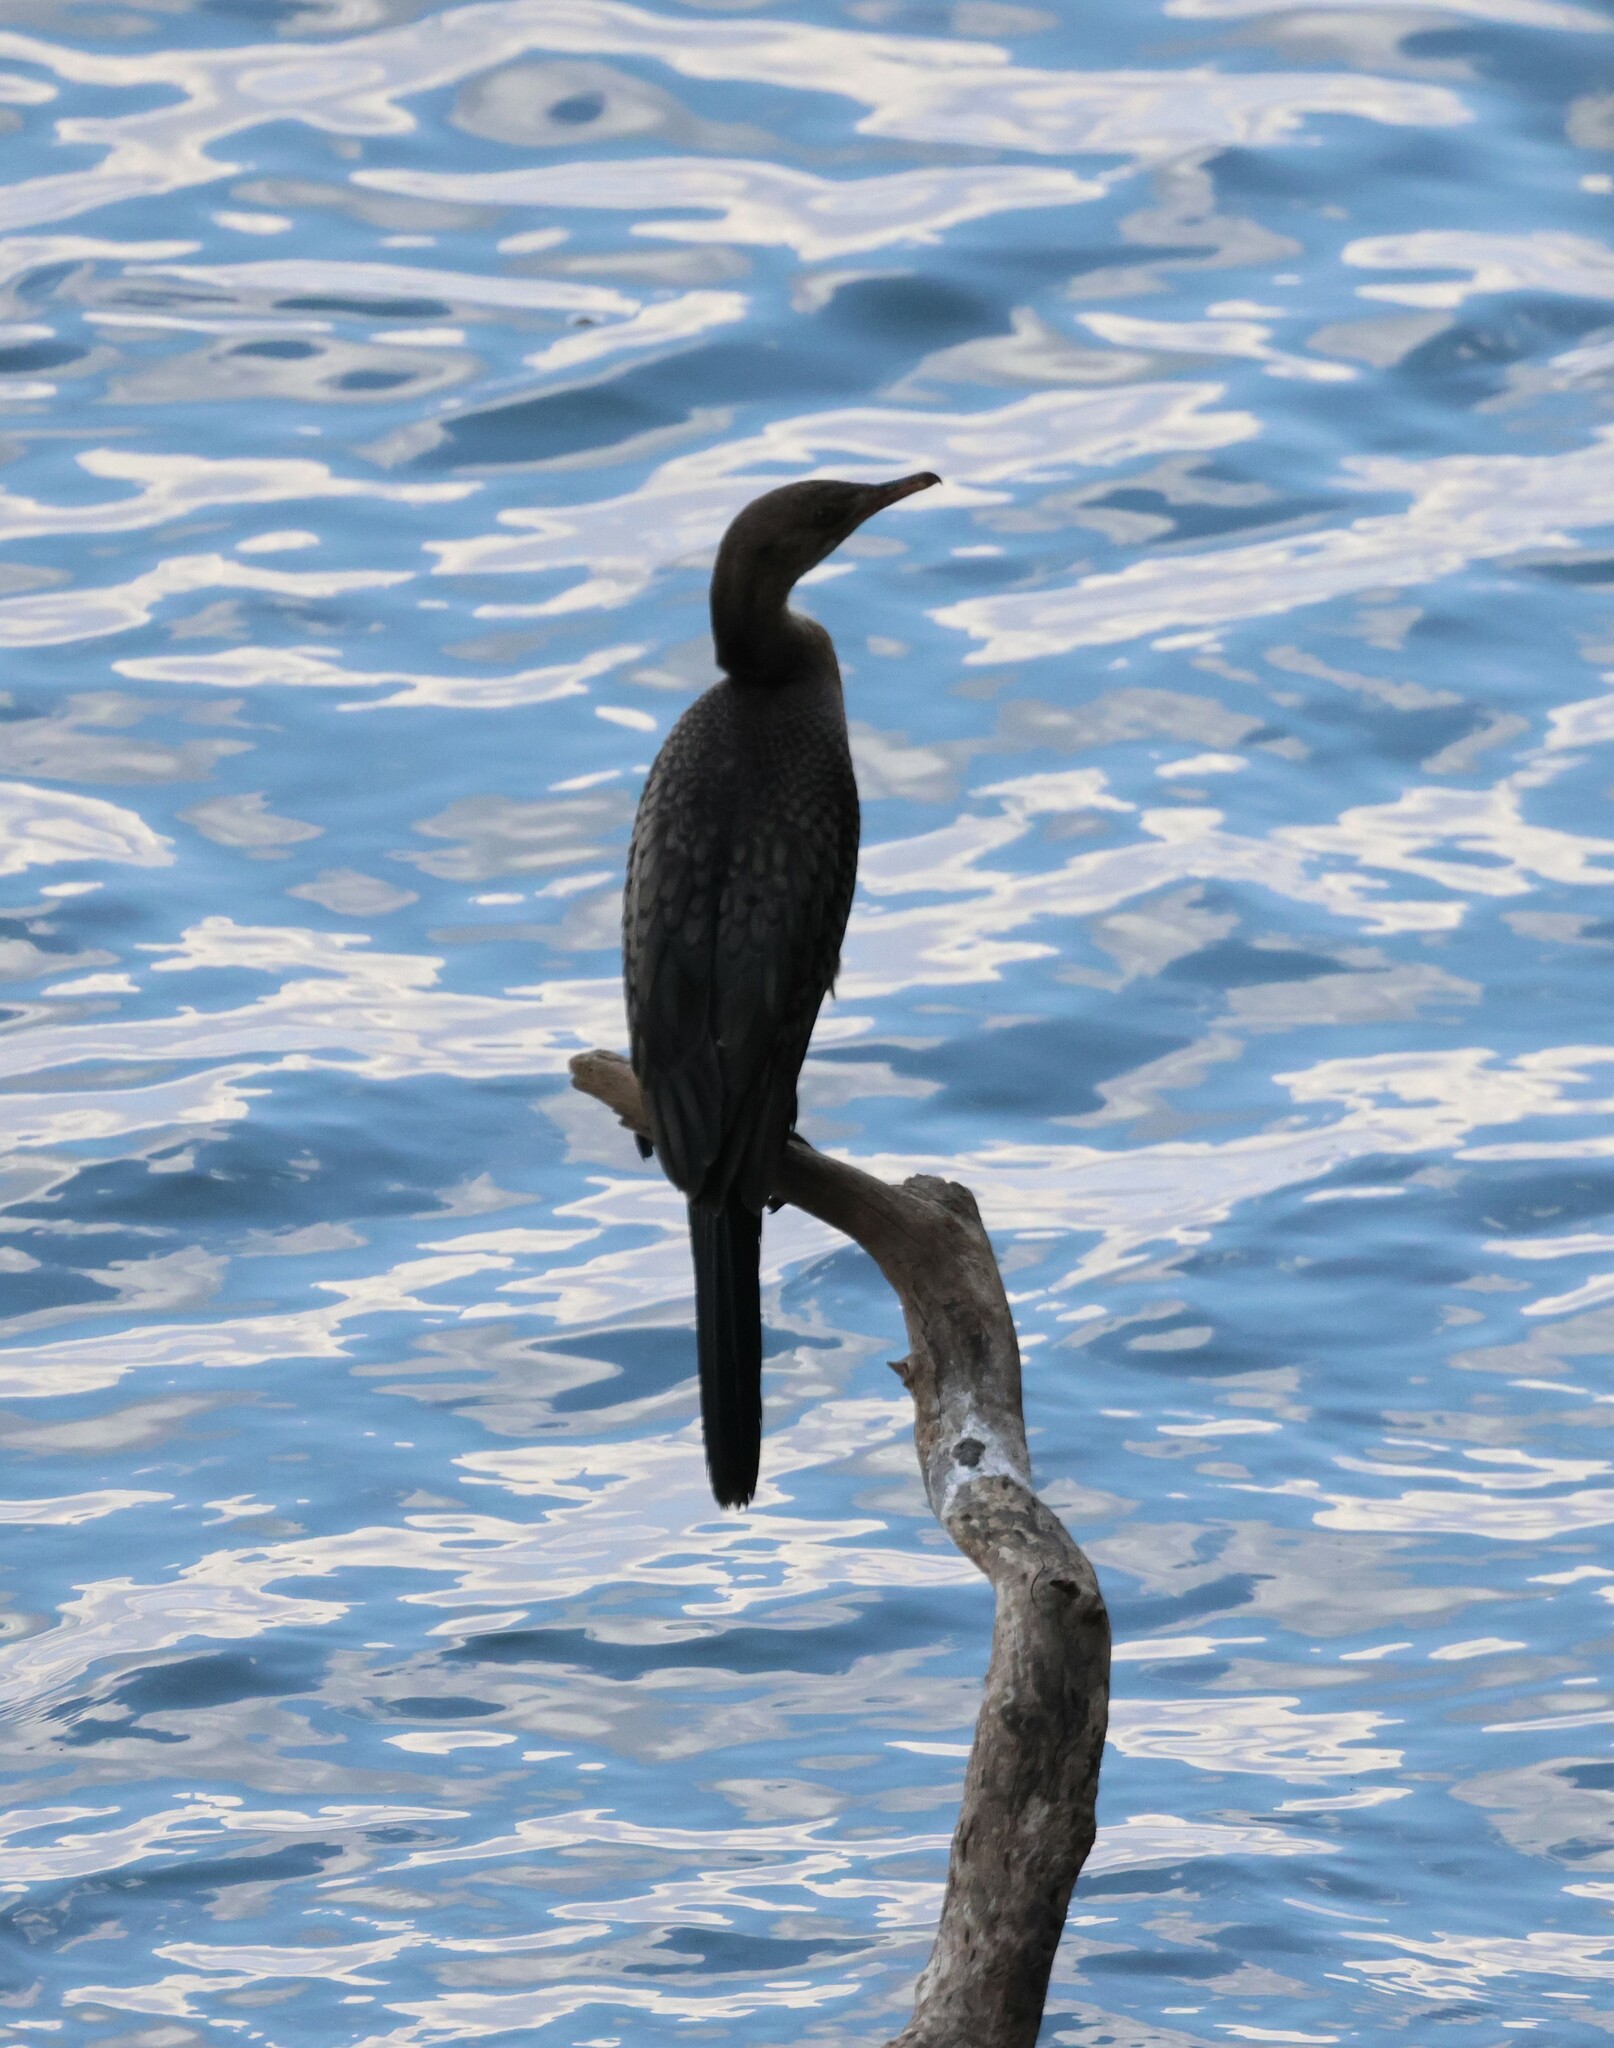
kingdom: Animalia
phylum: Chordata
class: Aves
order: Suliformes
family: Phalacrocoracidae
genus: Microcarbo
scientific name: Microcarbo africanus
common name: Long-tailed cormorant
